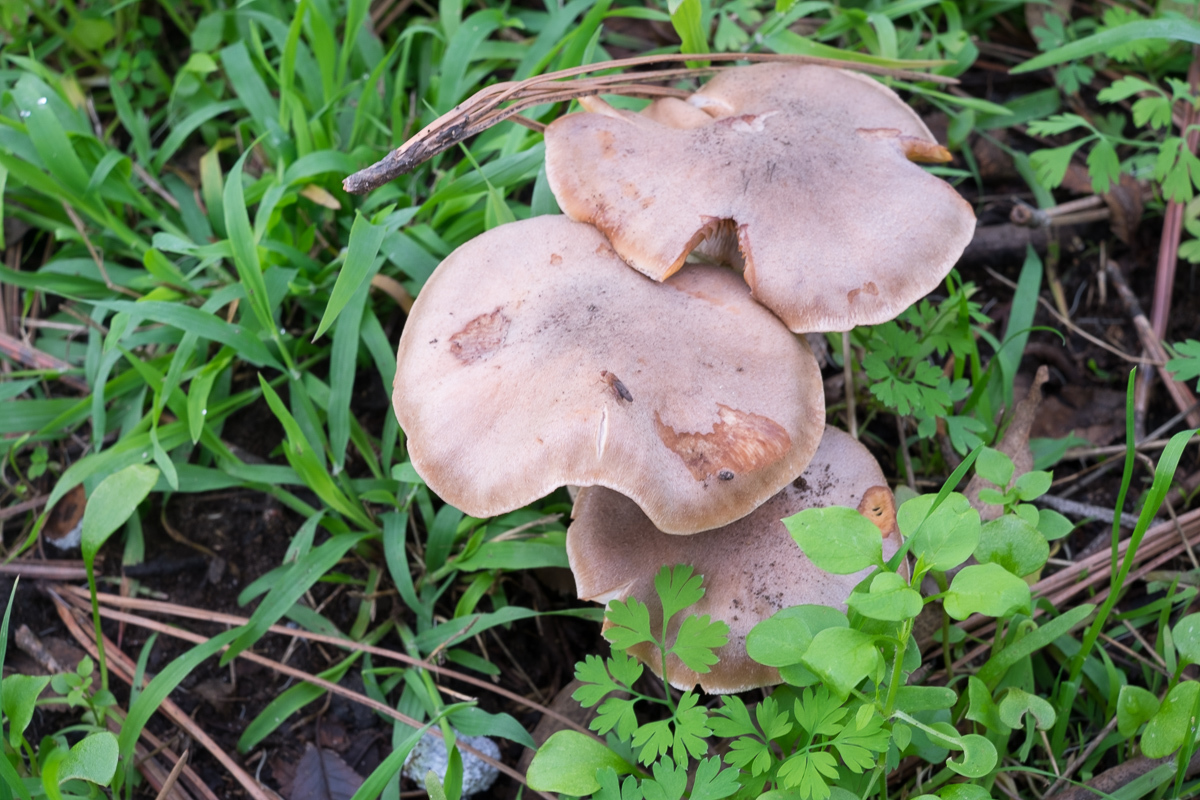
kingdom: Fungi
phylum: Basidiomycota
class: Agaricomycetes
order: Agaricales
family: Physalacriaceae
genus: Armillaria
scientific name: Armillaria mellea
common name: Honey fungus
